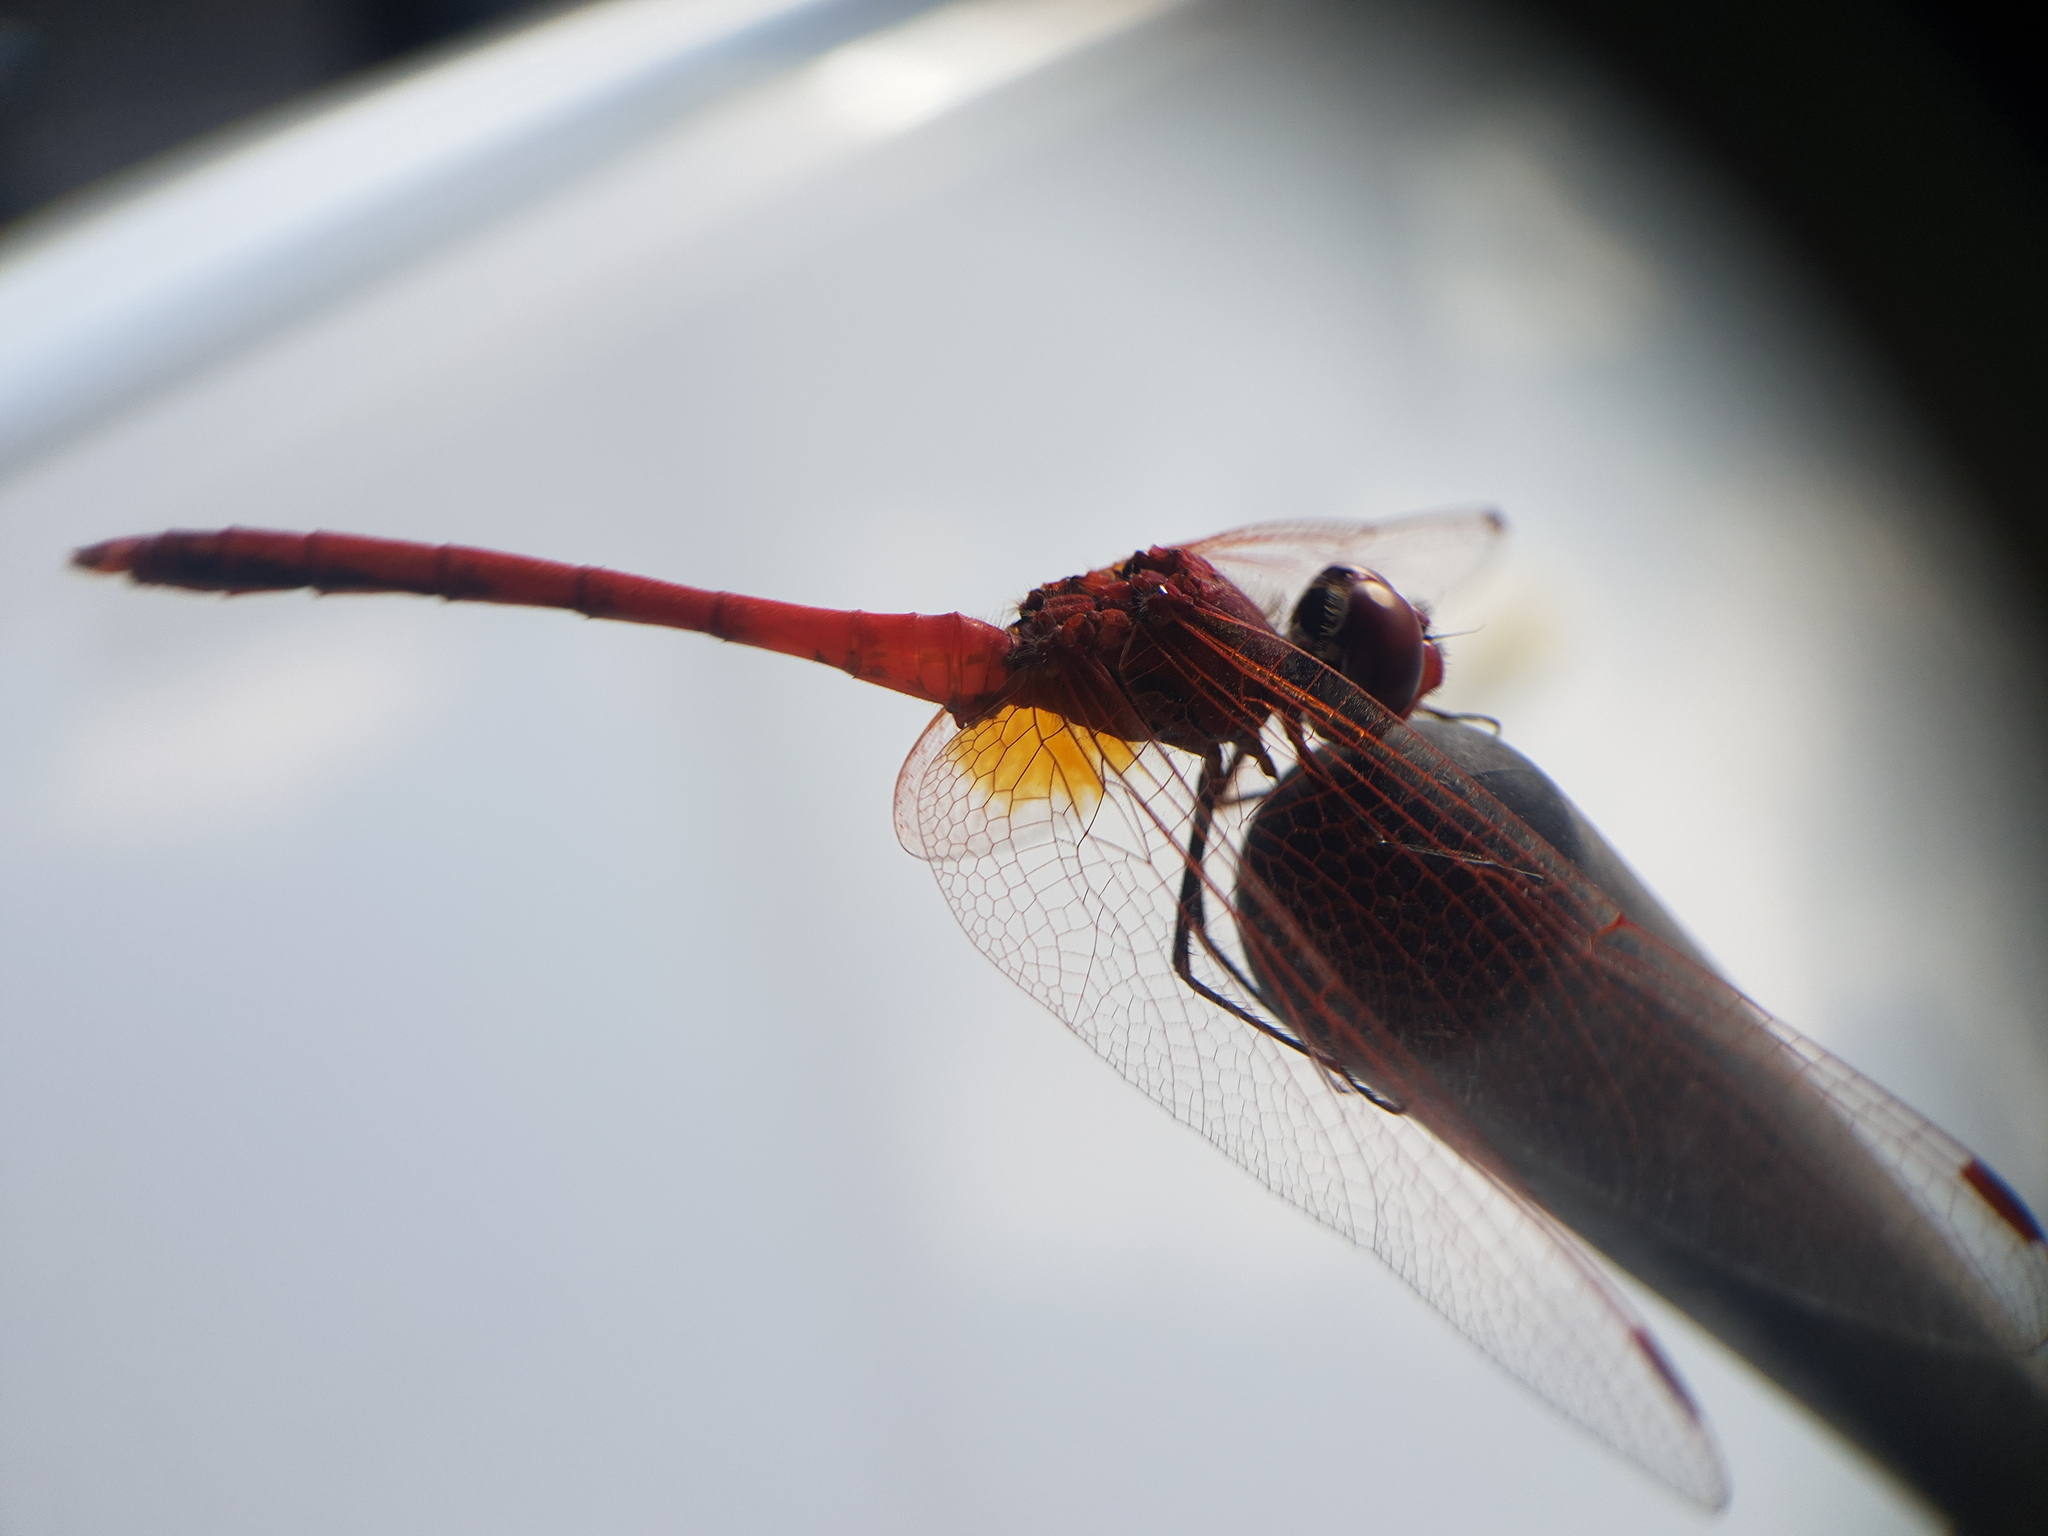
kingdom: Animalia
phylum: Arthropoda
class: Insecta
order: Odonata
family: Libellulidae
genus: Trithemis
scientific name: Trithemis arteriosa
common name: Red-veined dropwing
